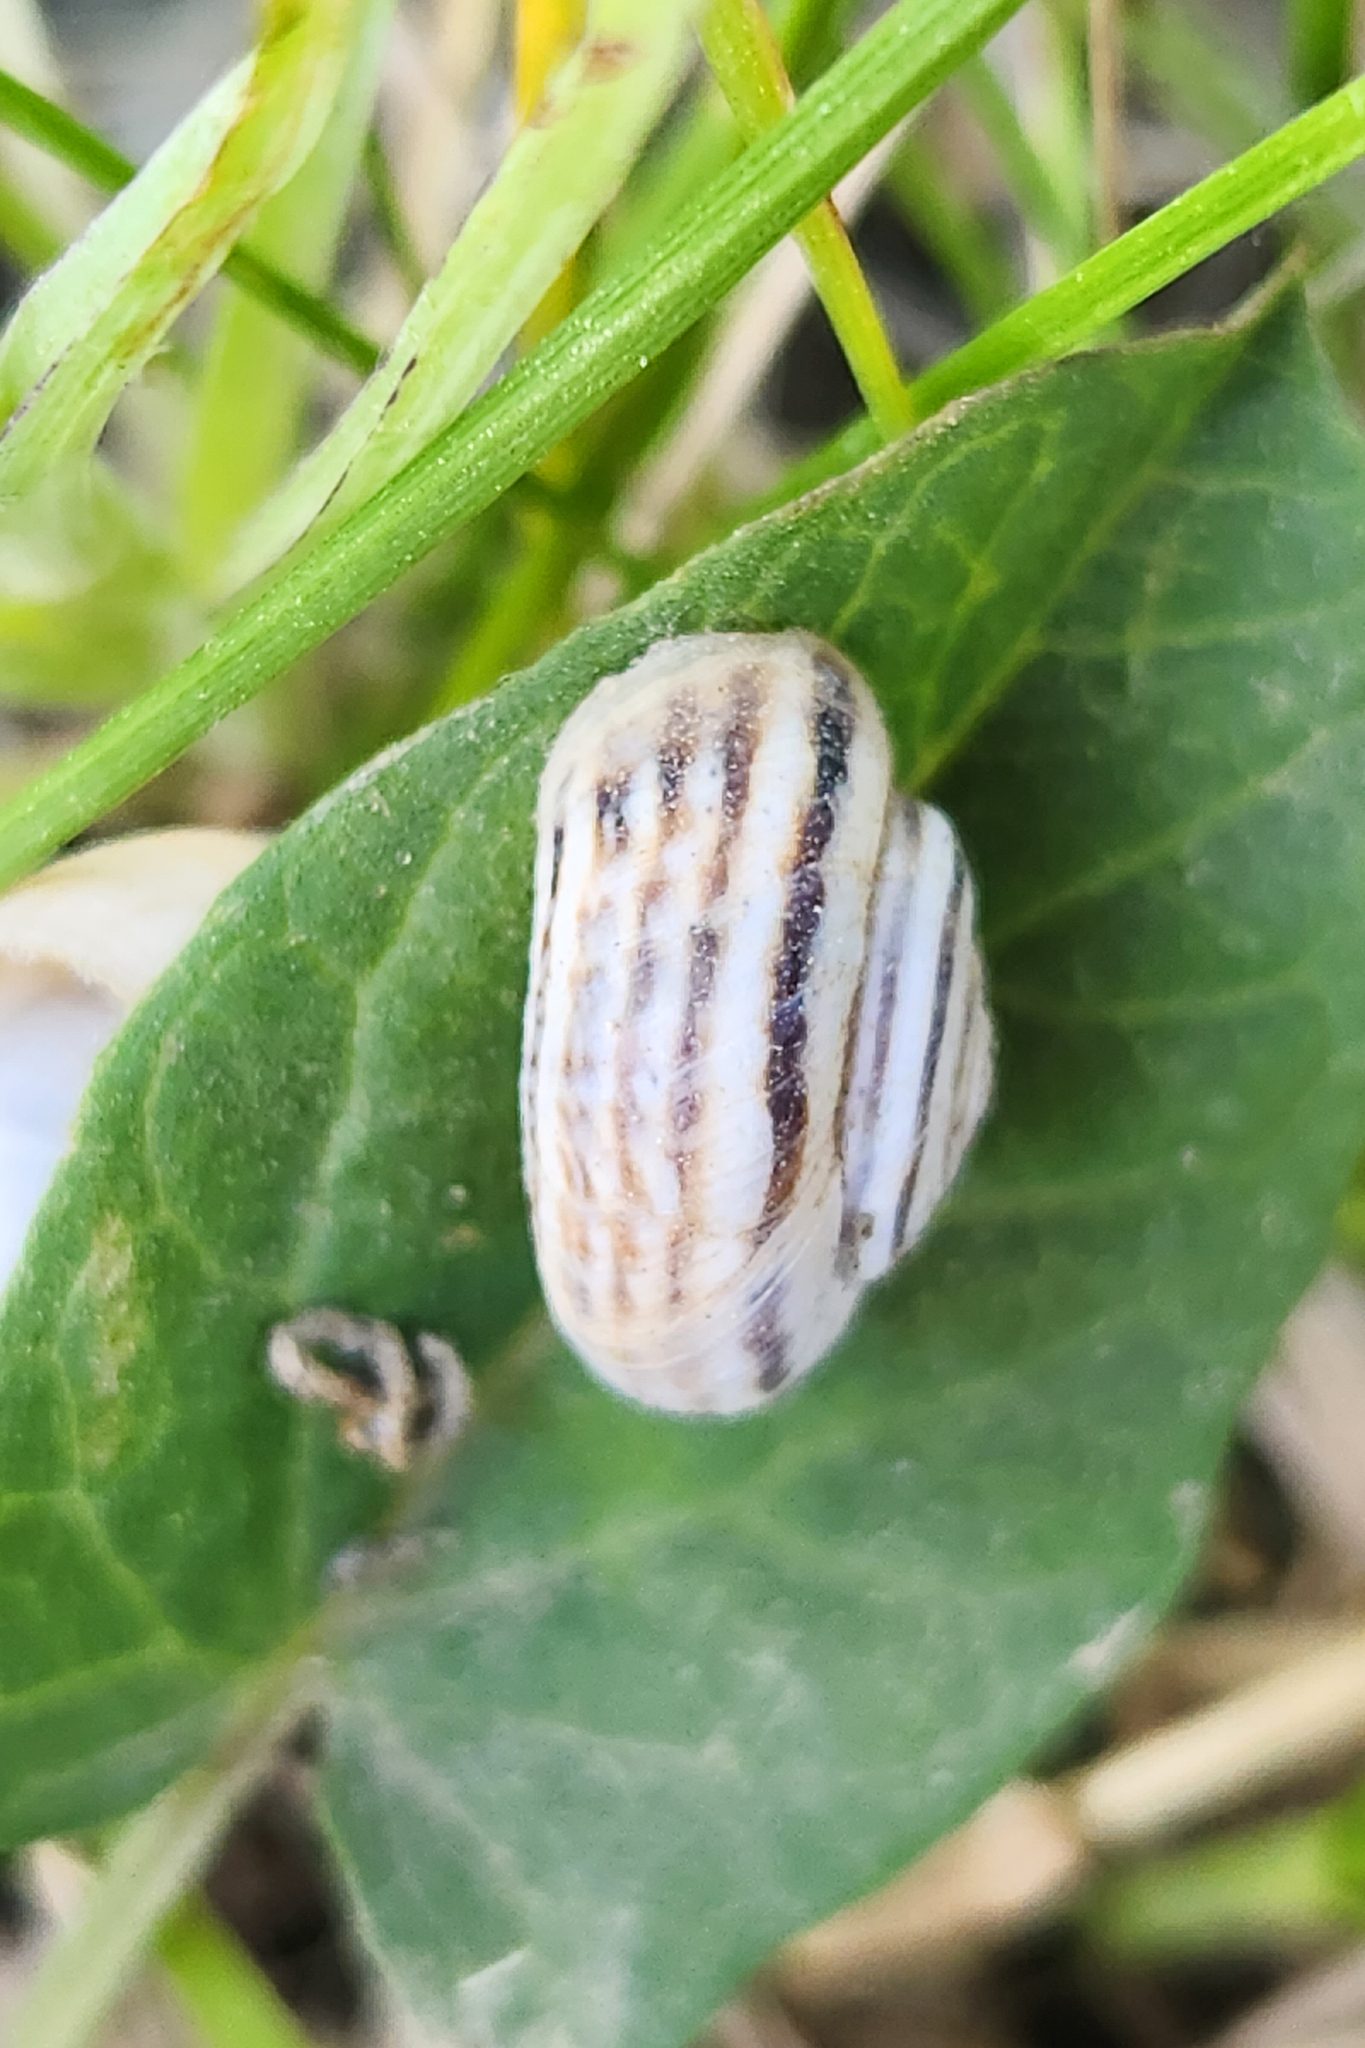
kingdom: Animalia
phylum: Mollusca
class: Gastropoda
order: Stylommatophora
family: Geomitridae
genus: Xerolenta
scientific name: Xerolenta obvia
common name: White heath snail
